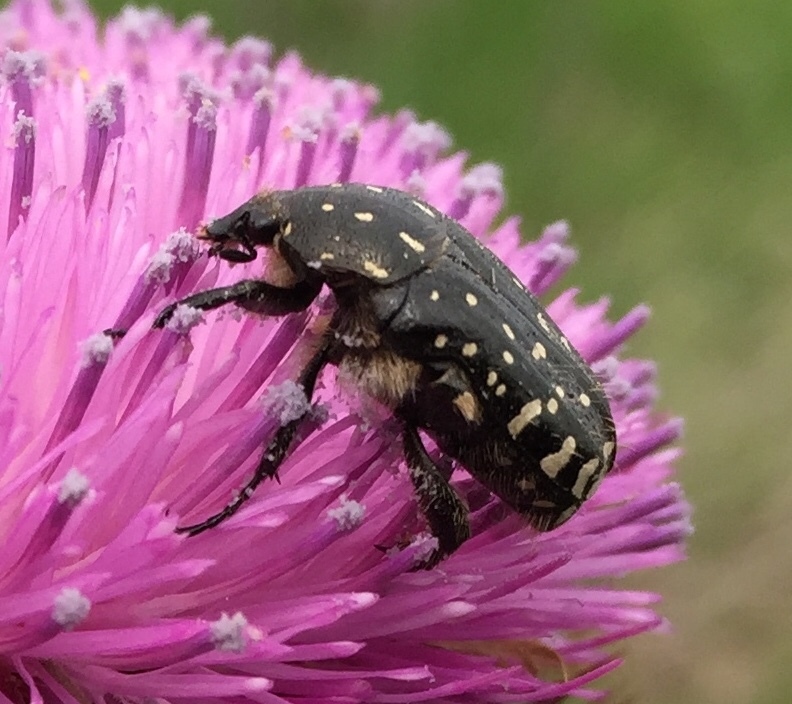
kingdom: Animalia
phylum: Arthropoda
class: Insecta
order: Coleoptera
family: Scarabaeidae
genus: Oxythyrea
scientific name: Oxythyrea funesta
